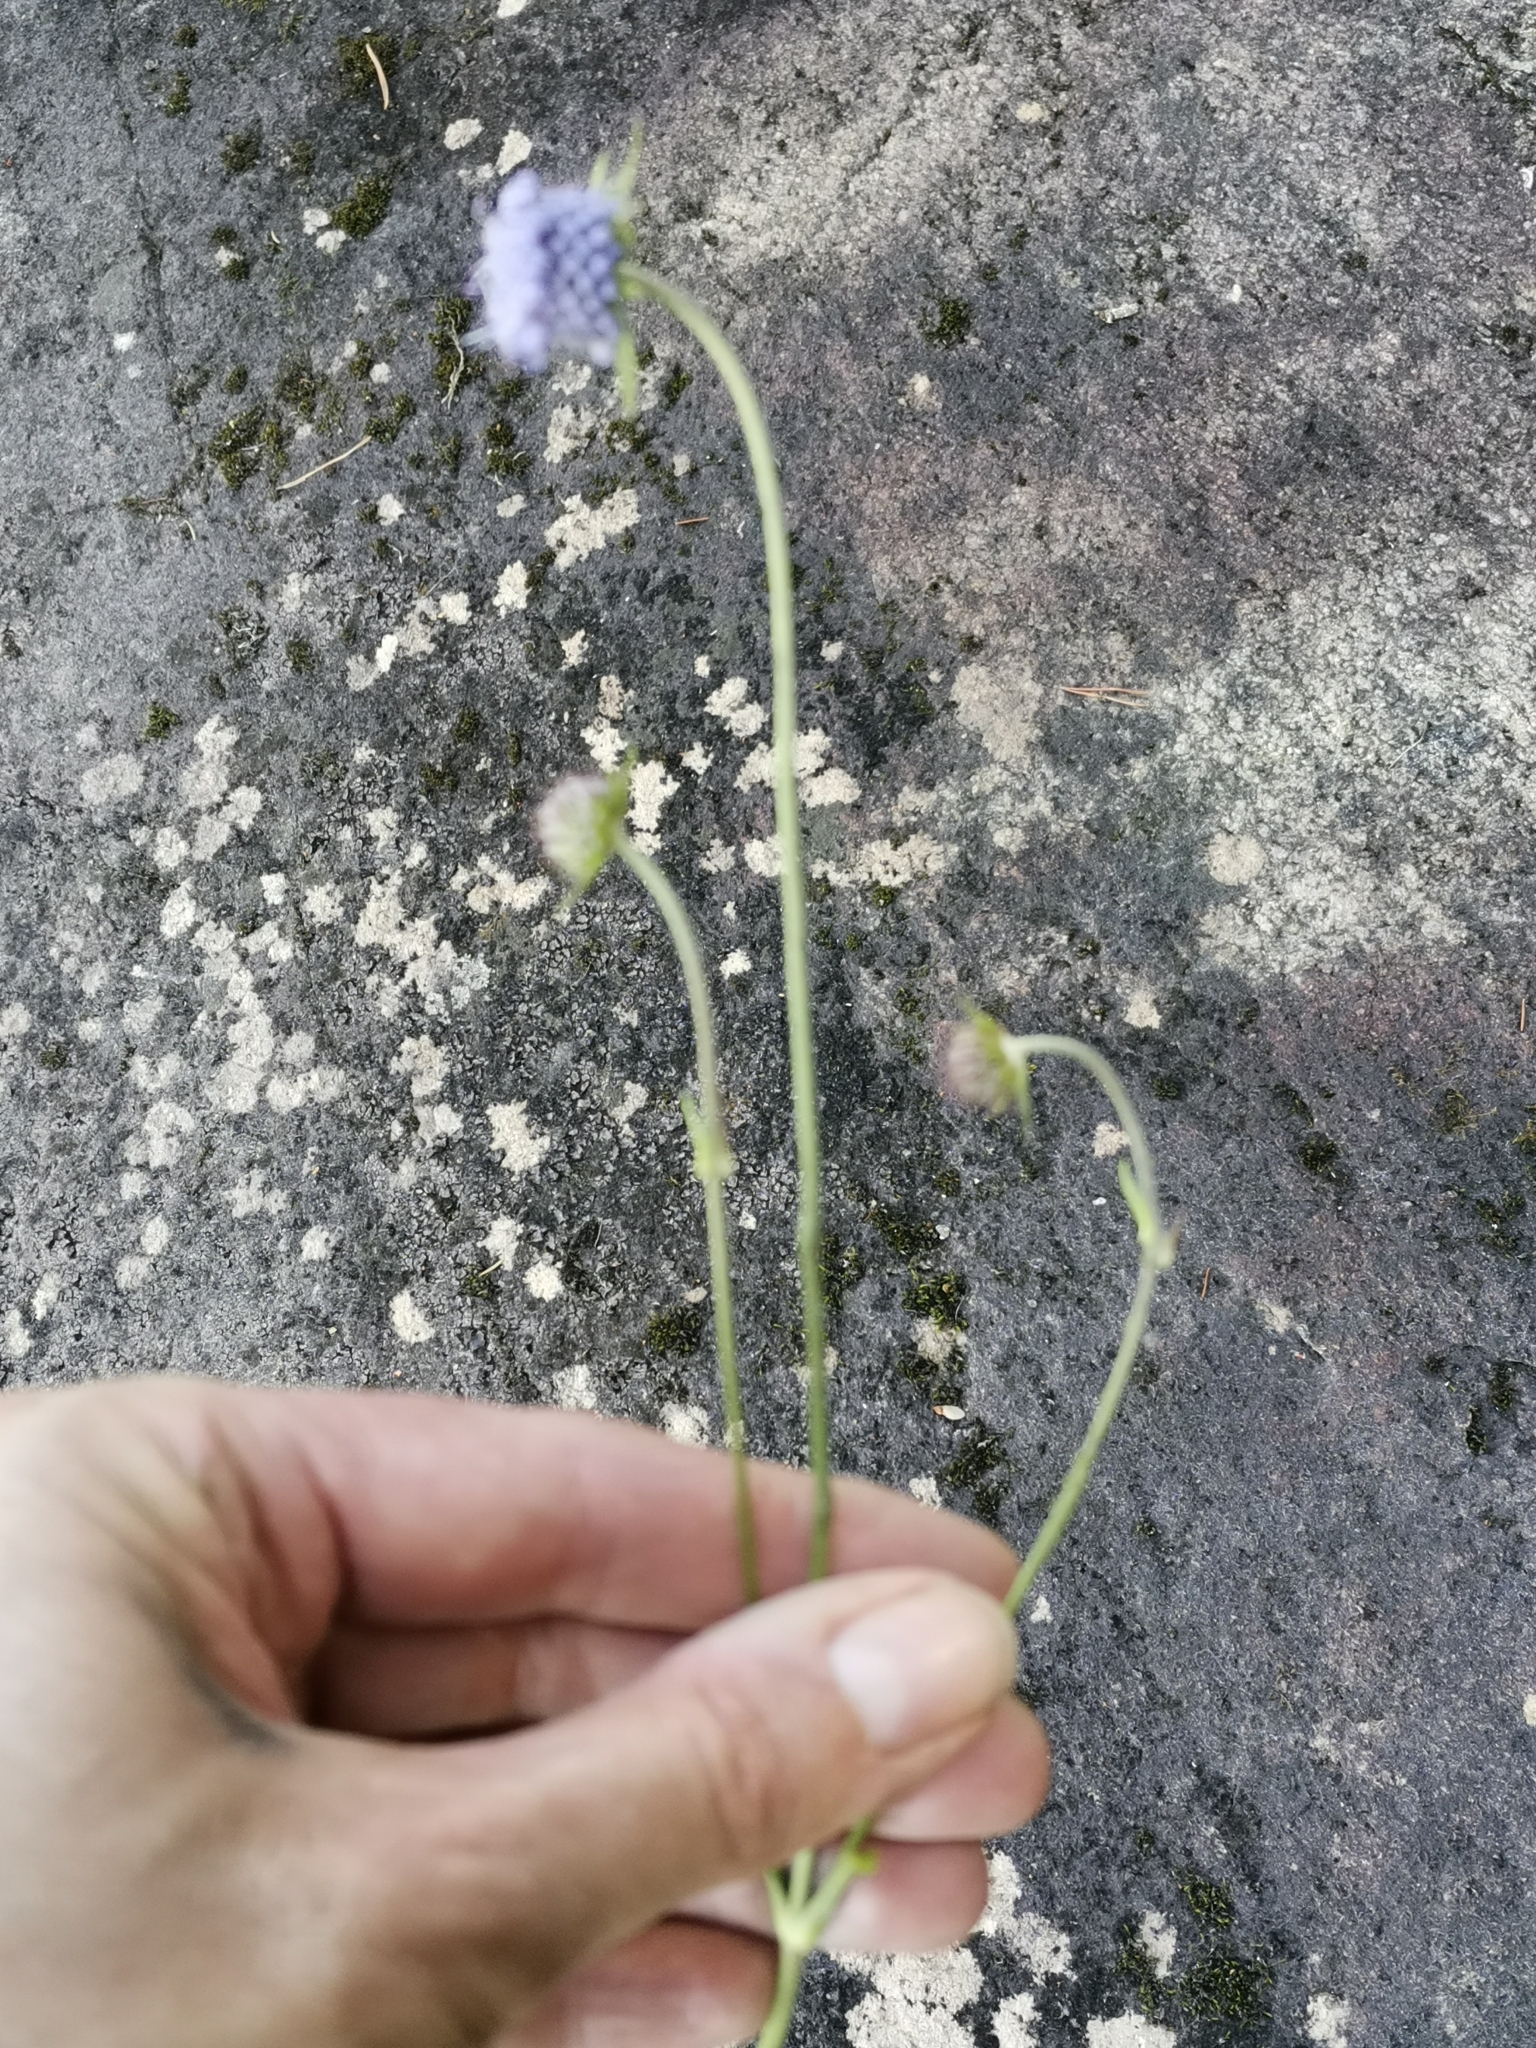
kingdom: Plantae
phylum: Tracheophyta
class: Magnoliopsida
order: Dipsacales
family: Caprifoliaceae
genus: Succisa
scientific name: Succisa pratensis
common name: Devil's-bit
